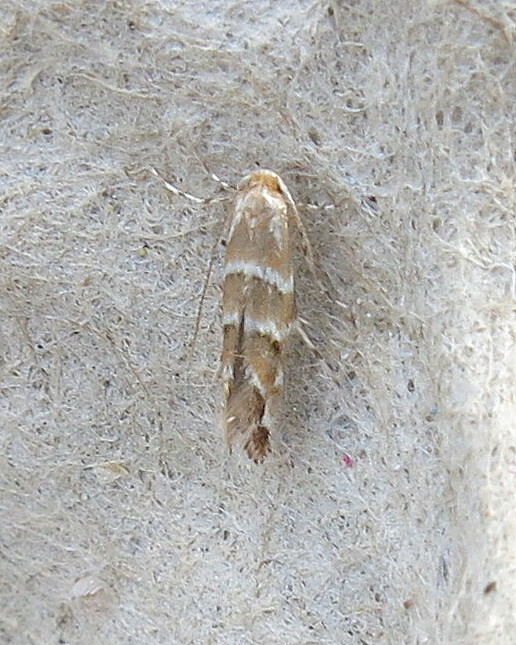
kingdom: Animalia
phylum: Arthropoda
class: Insecta
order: Lepidoptera
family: Gracillariidae
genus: Cameraria
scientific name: Cameraria ohridella
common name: Horse-chestnut leaf-miner
